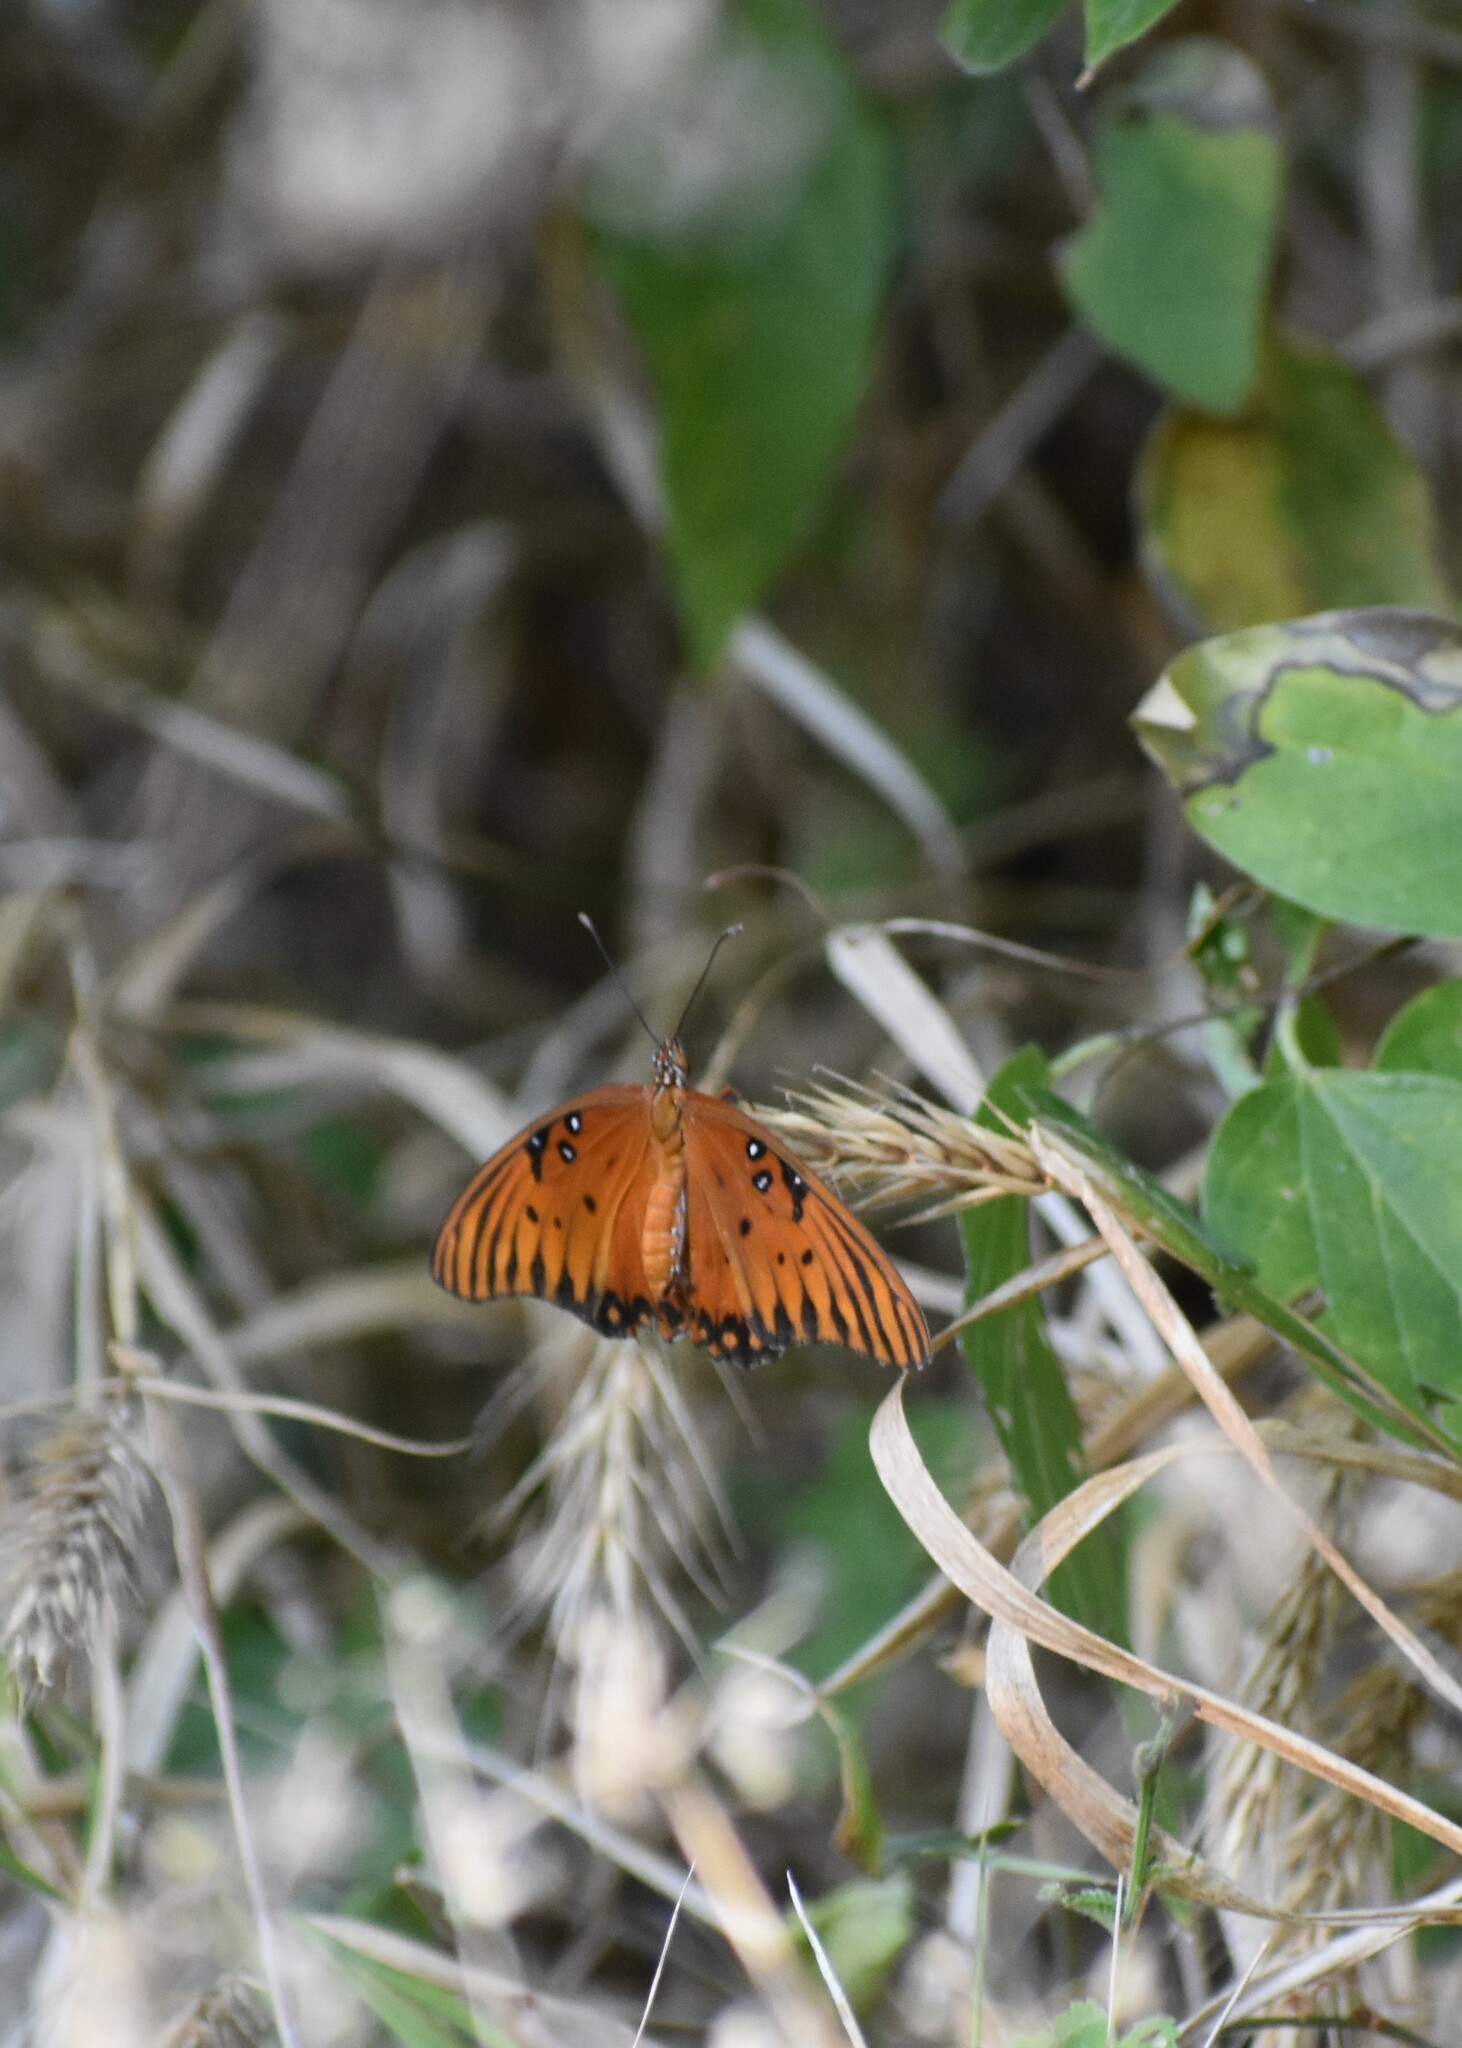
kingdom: Animalia
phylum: Arthropoda
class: Insecta
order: Lepidoptera
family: Nymphalidae
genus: Dione
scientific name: Dione vanillae
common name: Gulf fritillary
